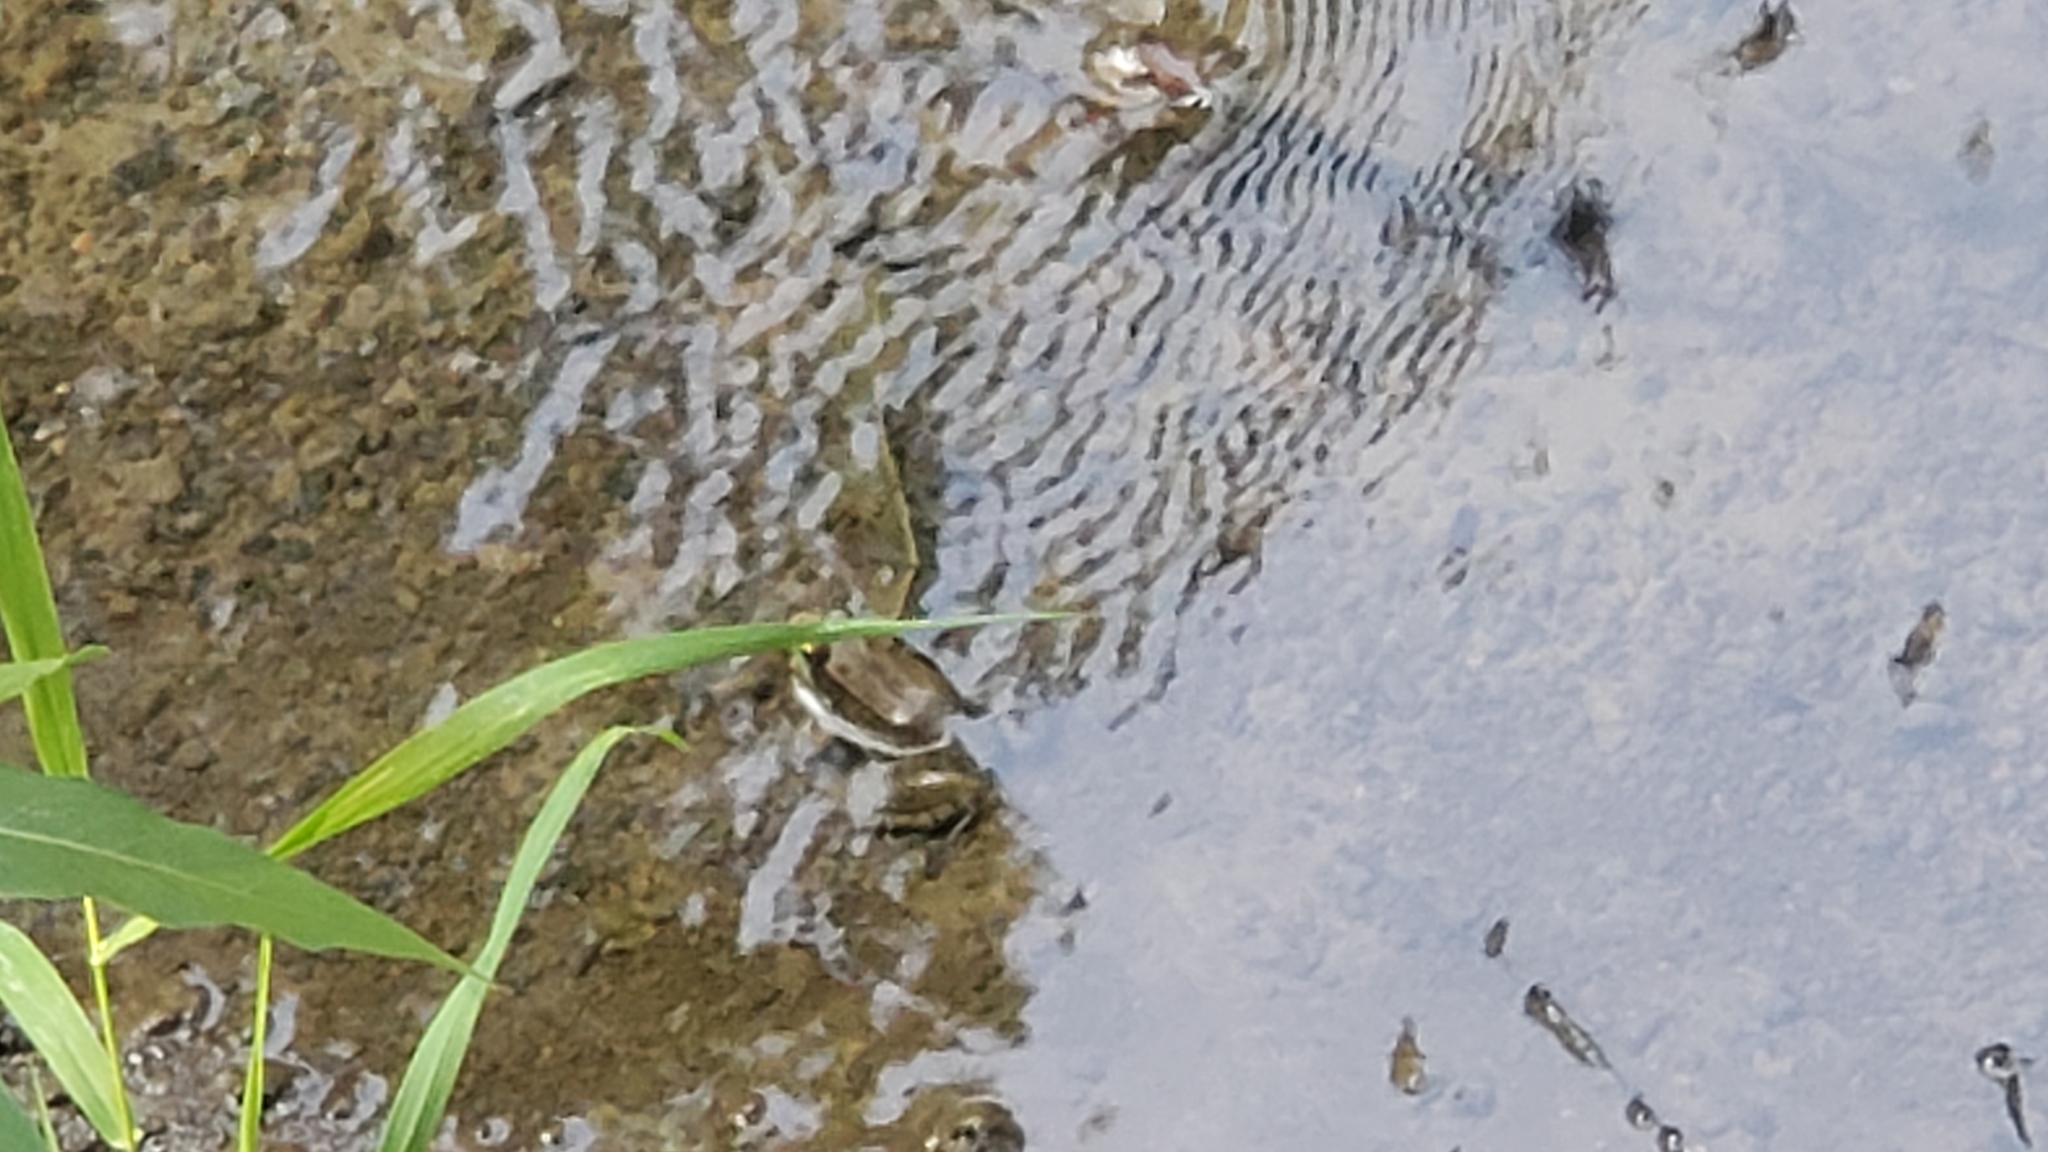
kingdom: Animalia
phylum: Chordata
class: Amphibia
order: Anura
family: Ranidae
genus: Lithobates
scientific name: Lithobates clamitans
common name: Green frog
